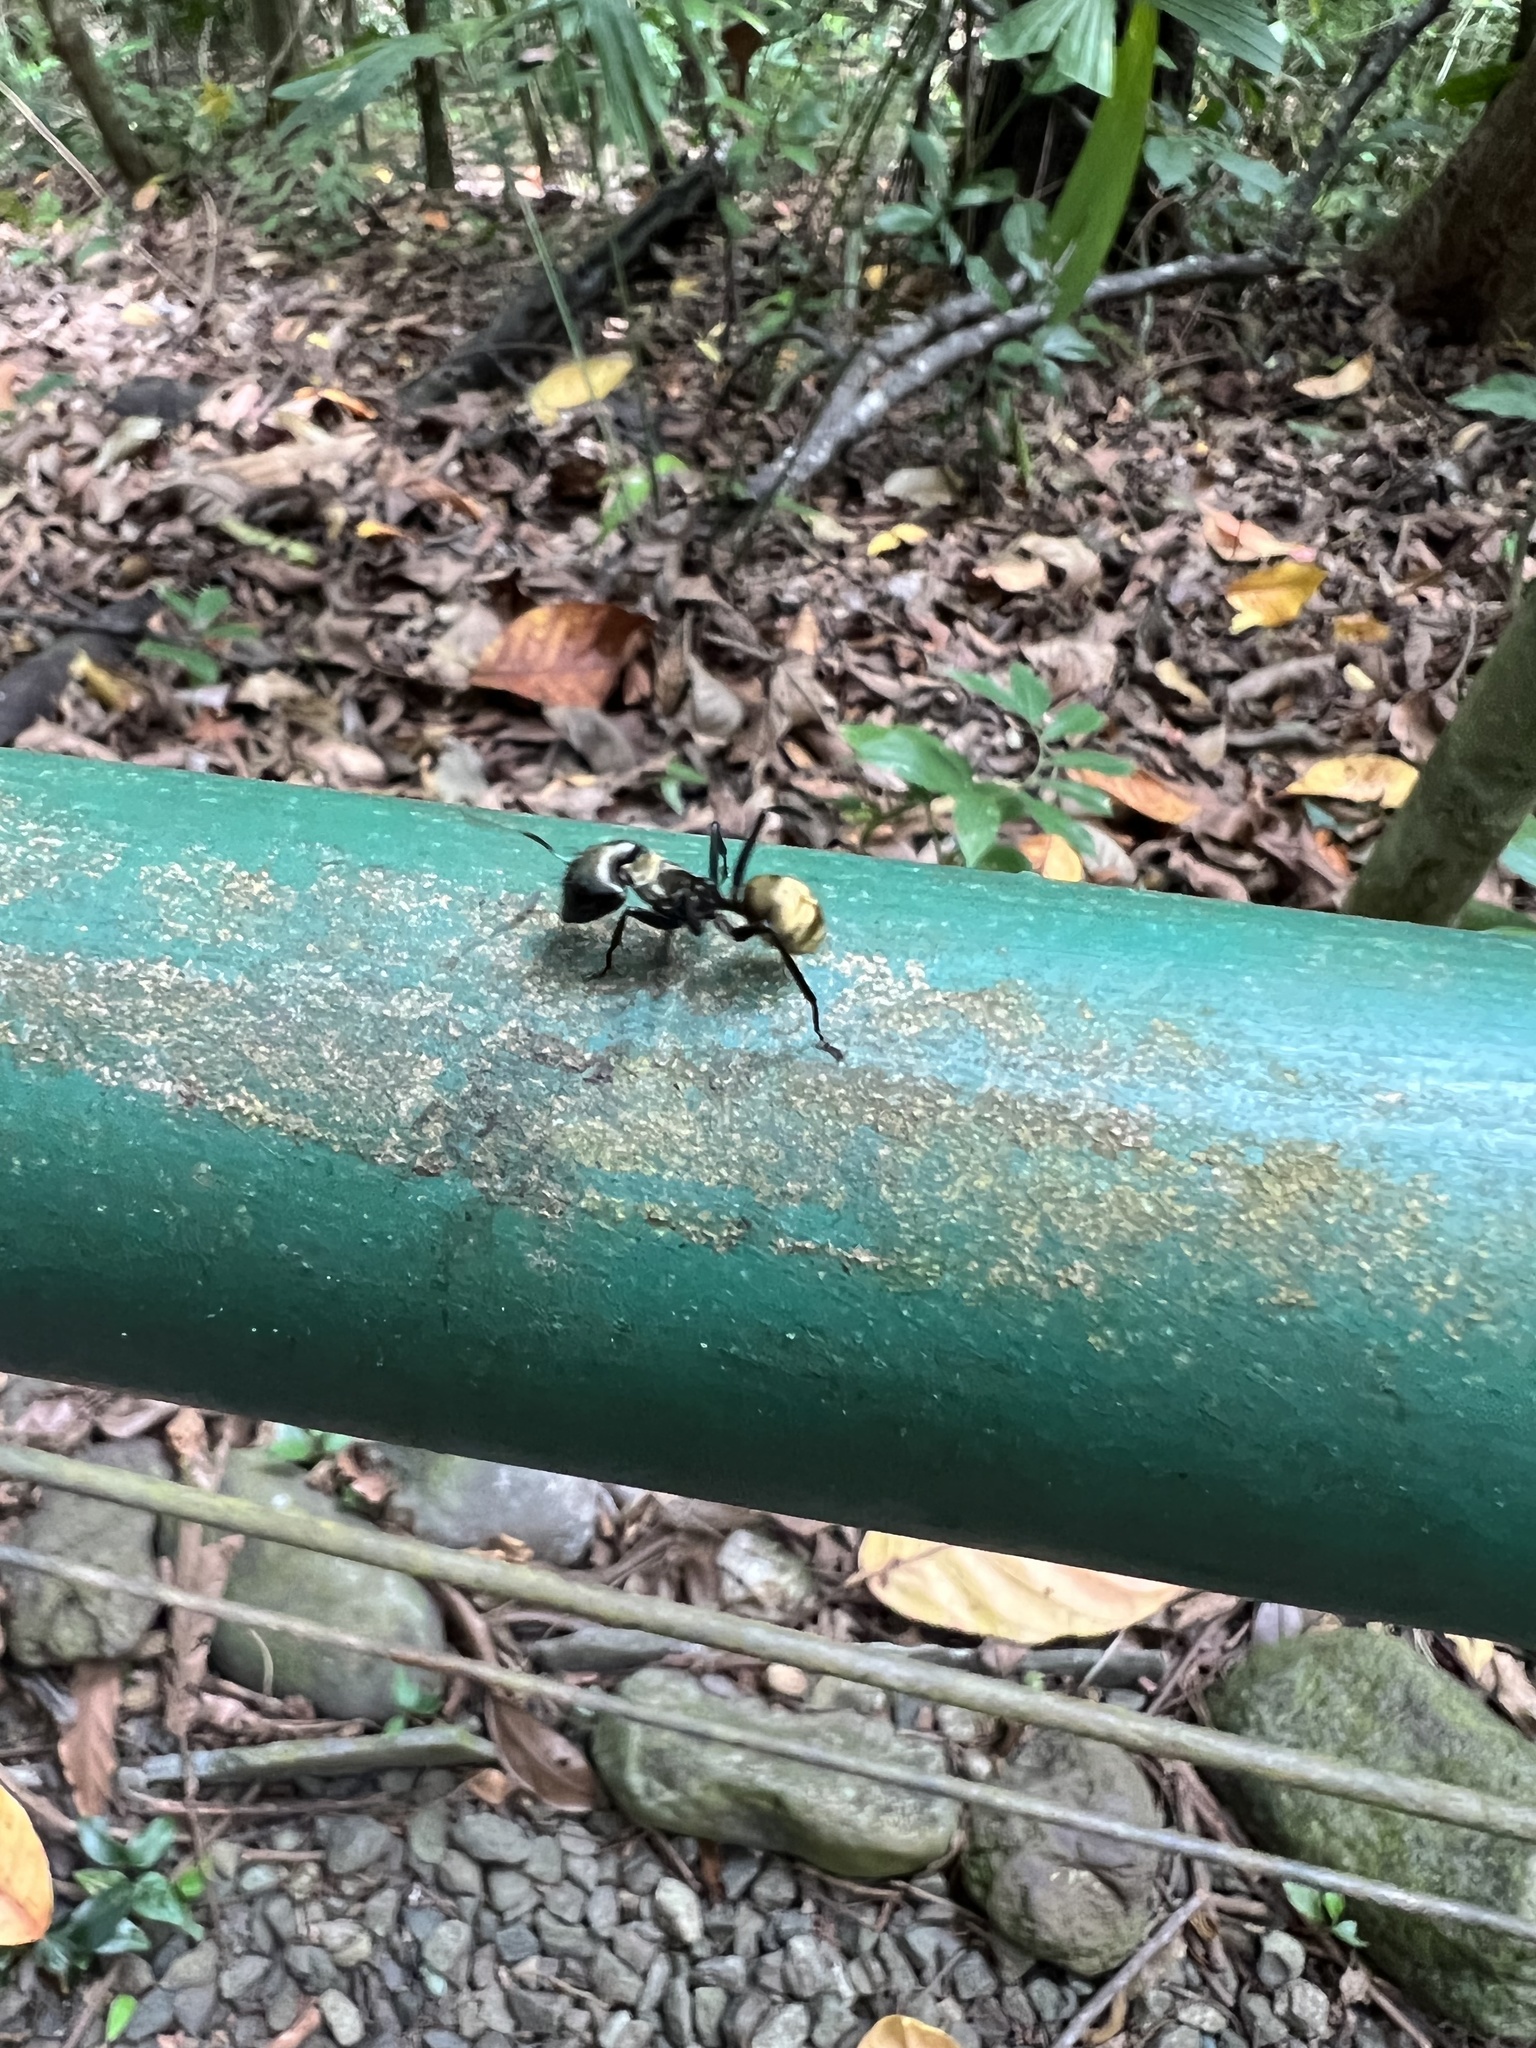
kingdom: Animalia
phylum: Arthropoda
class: Insecta
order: Hymenoptera
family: Formicidae
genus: Camponotus
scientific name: Camponotus sericeiventris
